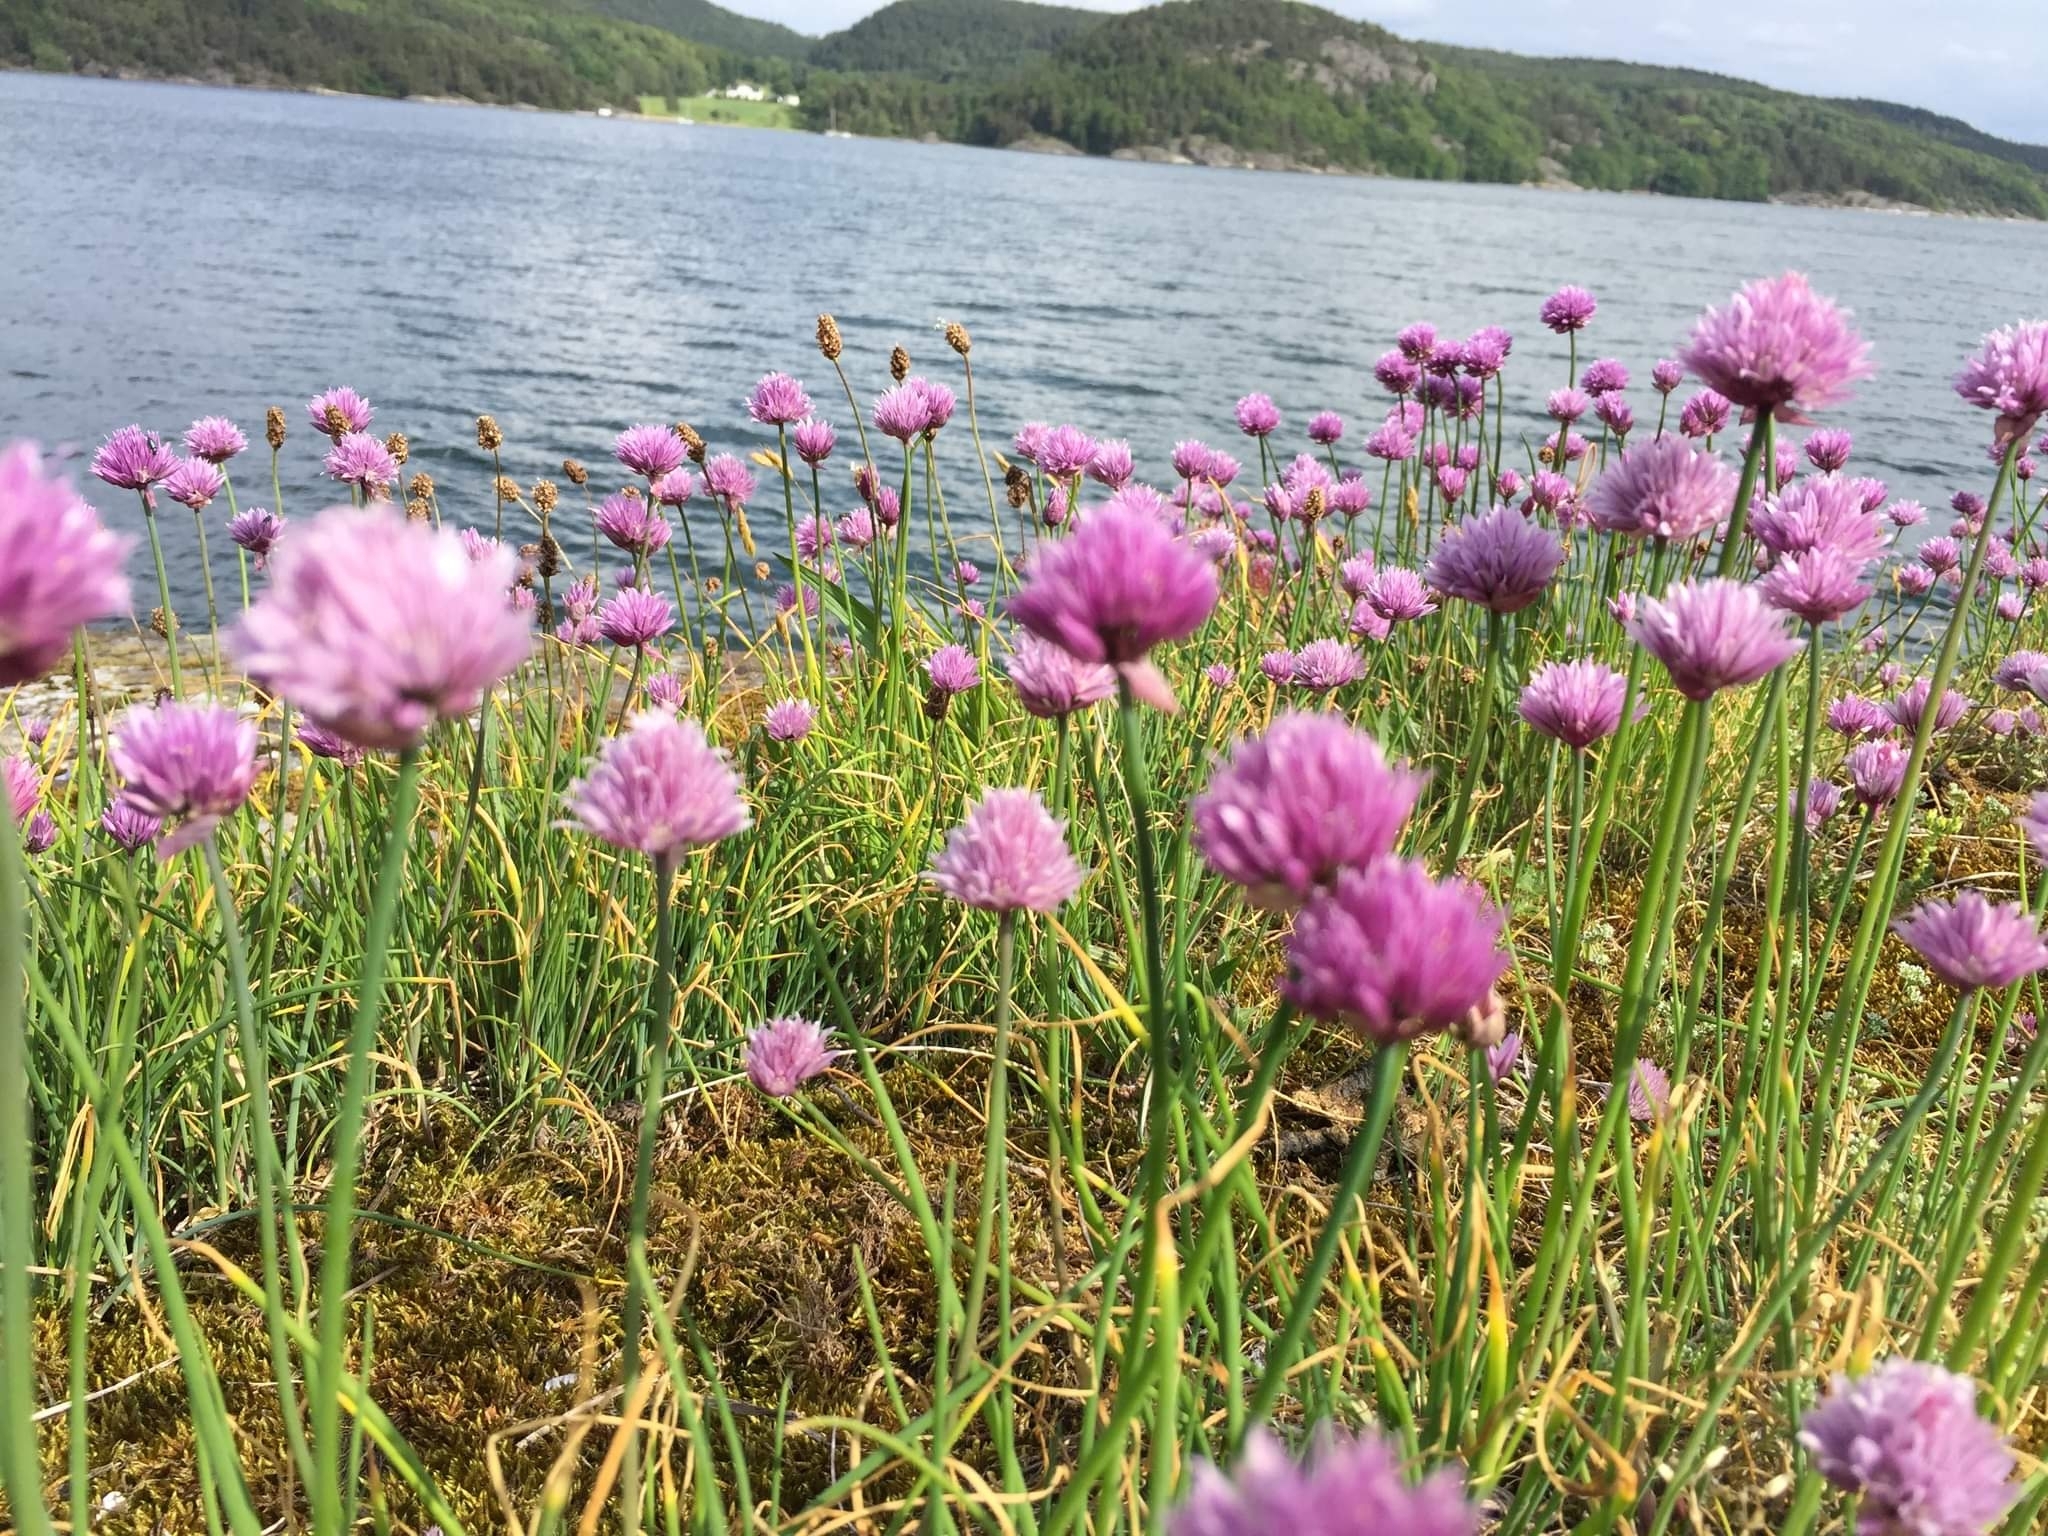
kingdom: Plantae
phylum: Tracheophyta
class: Liliopsida
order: Asparagales
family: Amaryllidaceae
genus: Allium
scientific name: Allium schoenoprasum
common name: Chives
